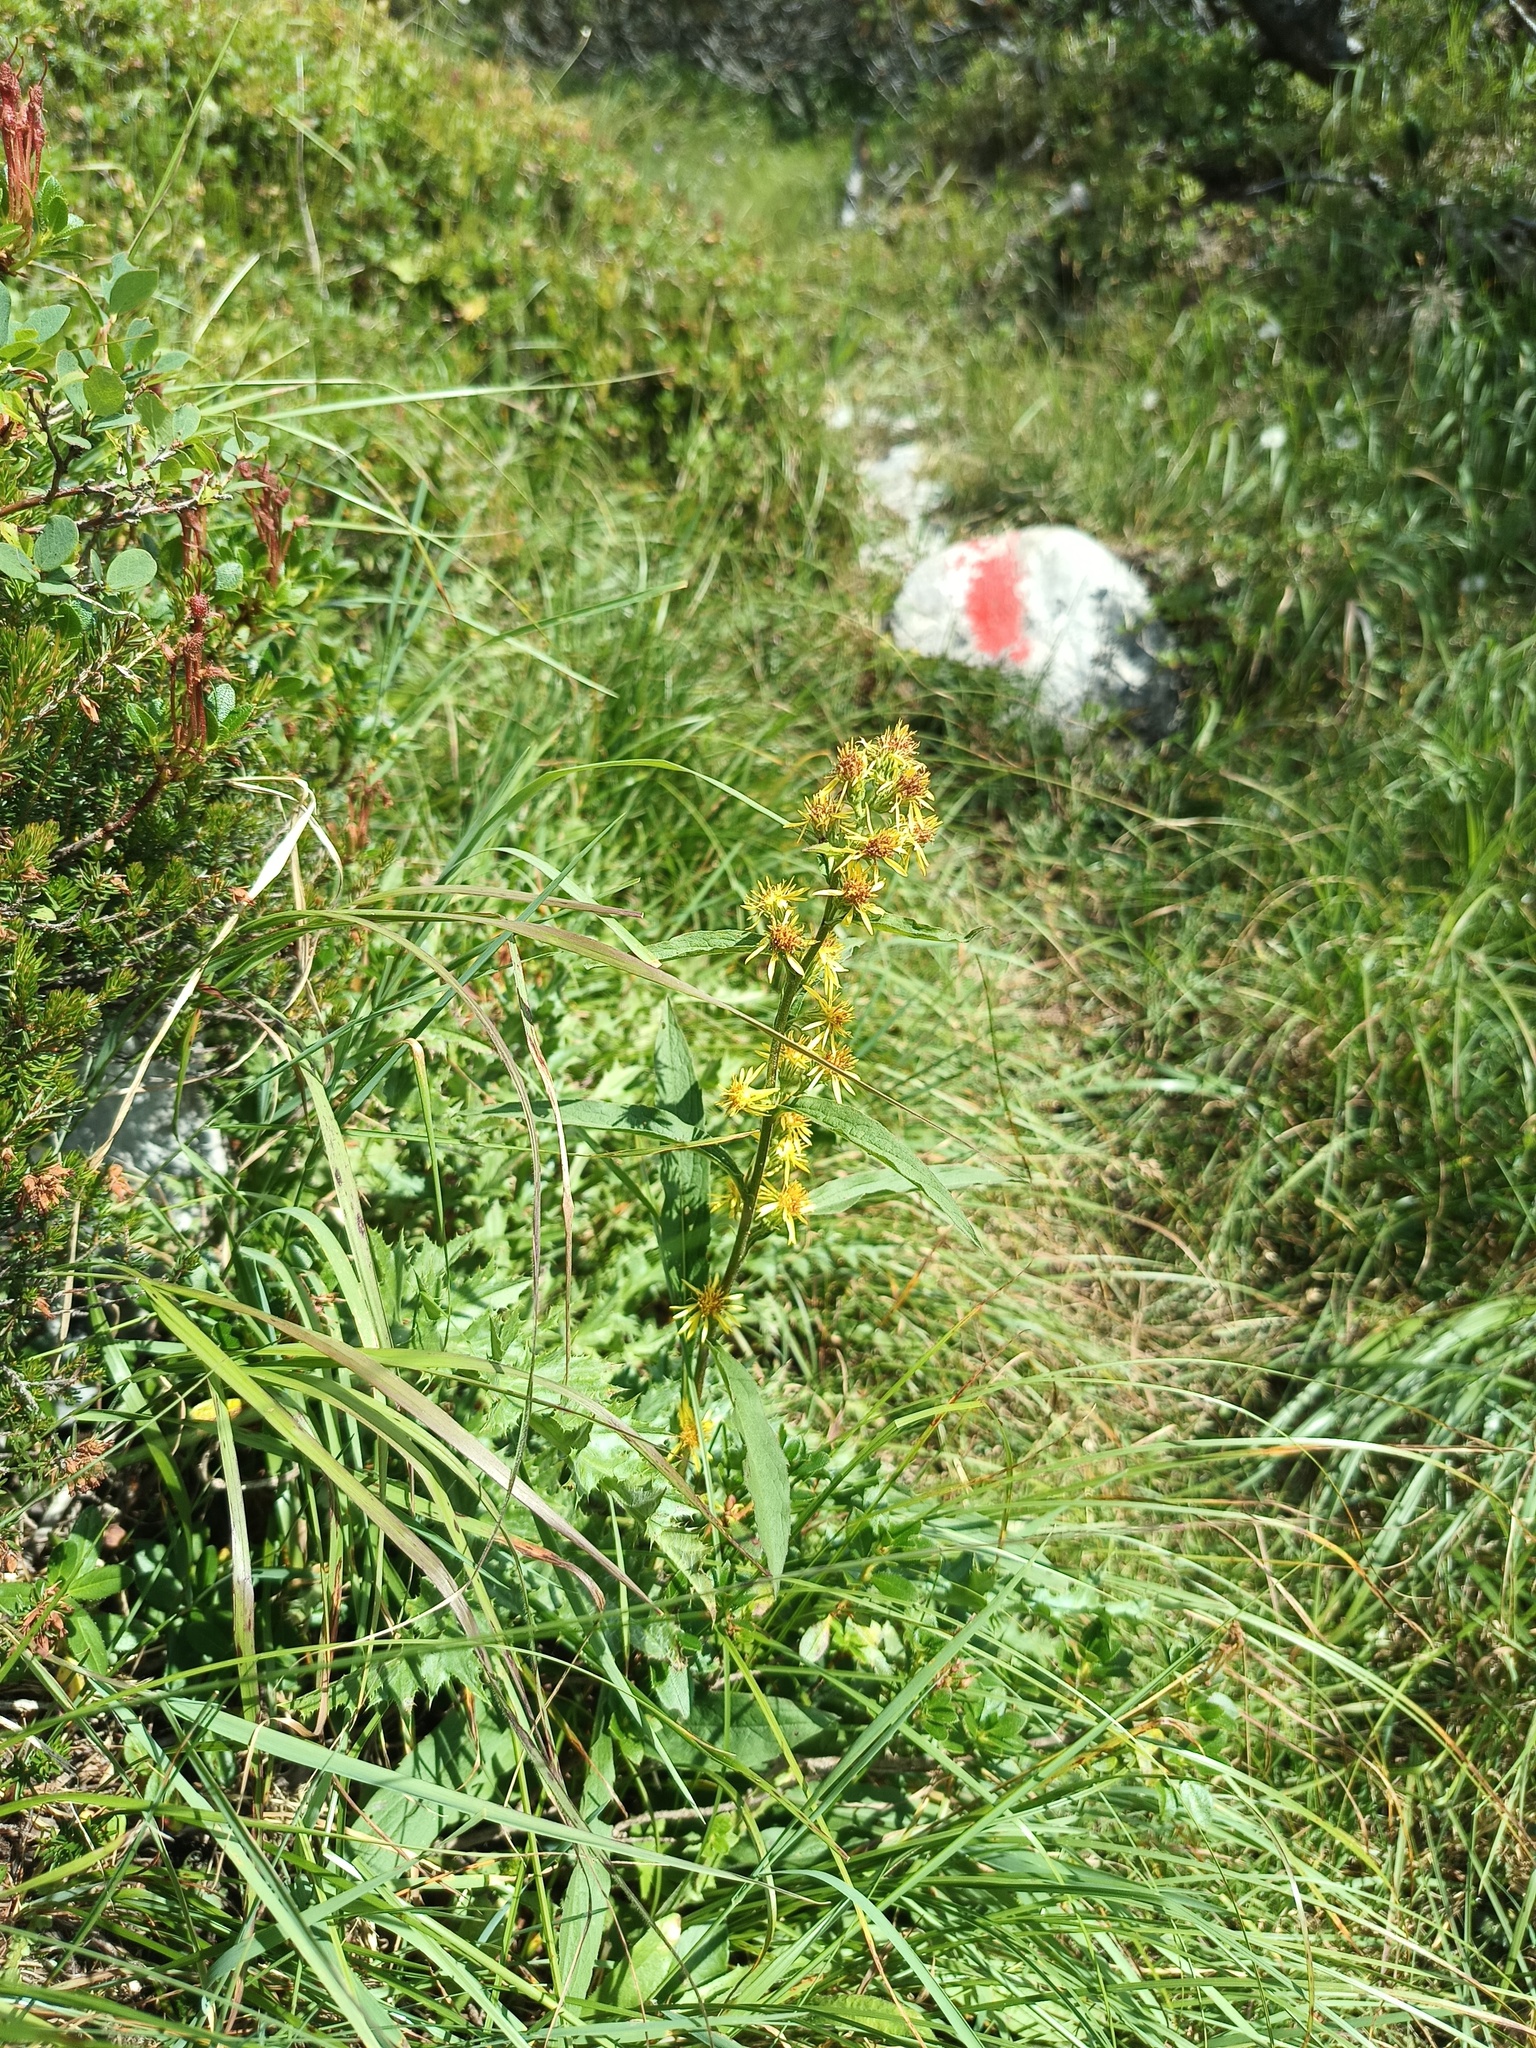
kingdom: Plantae
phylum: Tracheophyta
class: Magnoliopsida
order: Asterales
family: Asteraceae
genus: Solidago
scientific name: Solidago virgaurea
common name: Goldenrod
